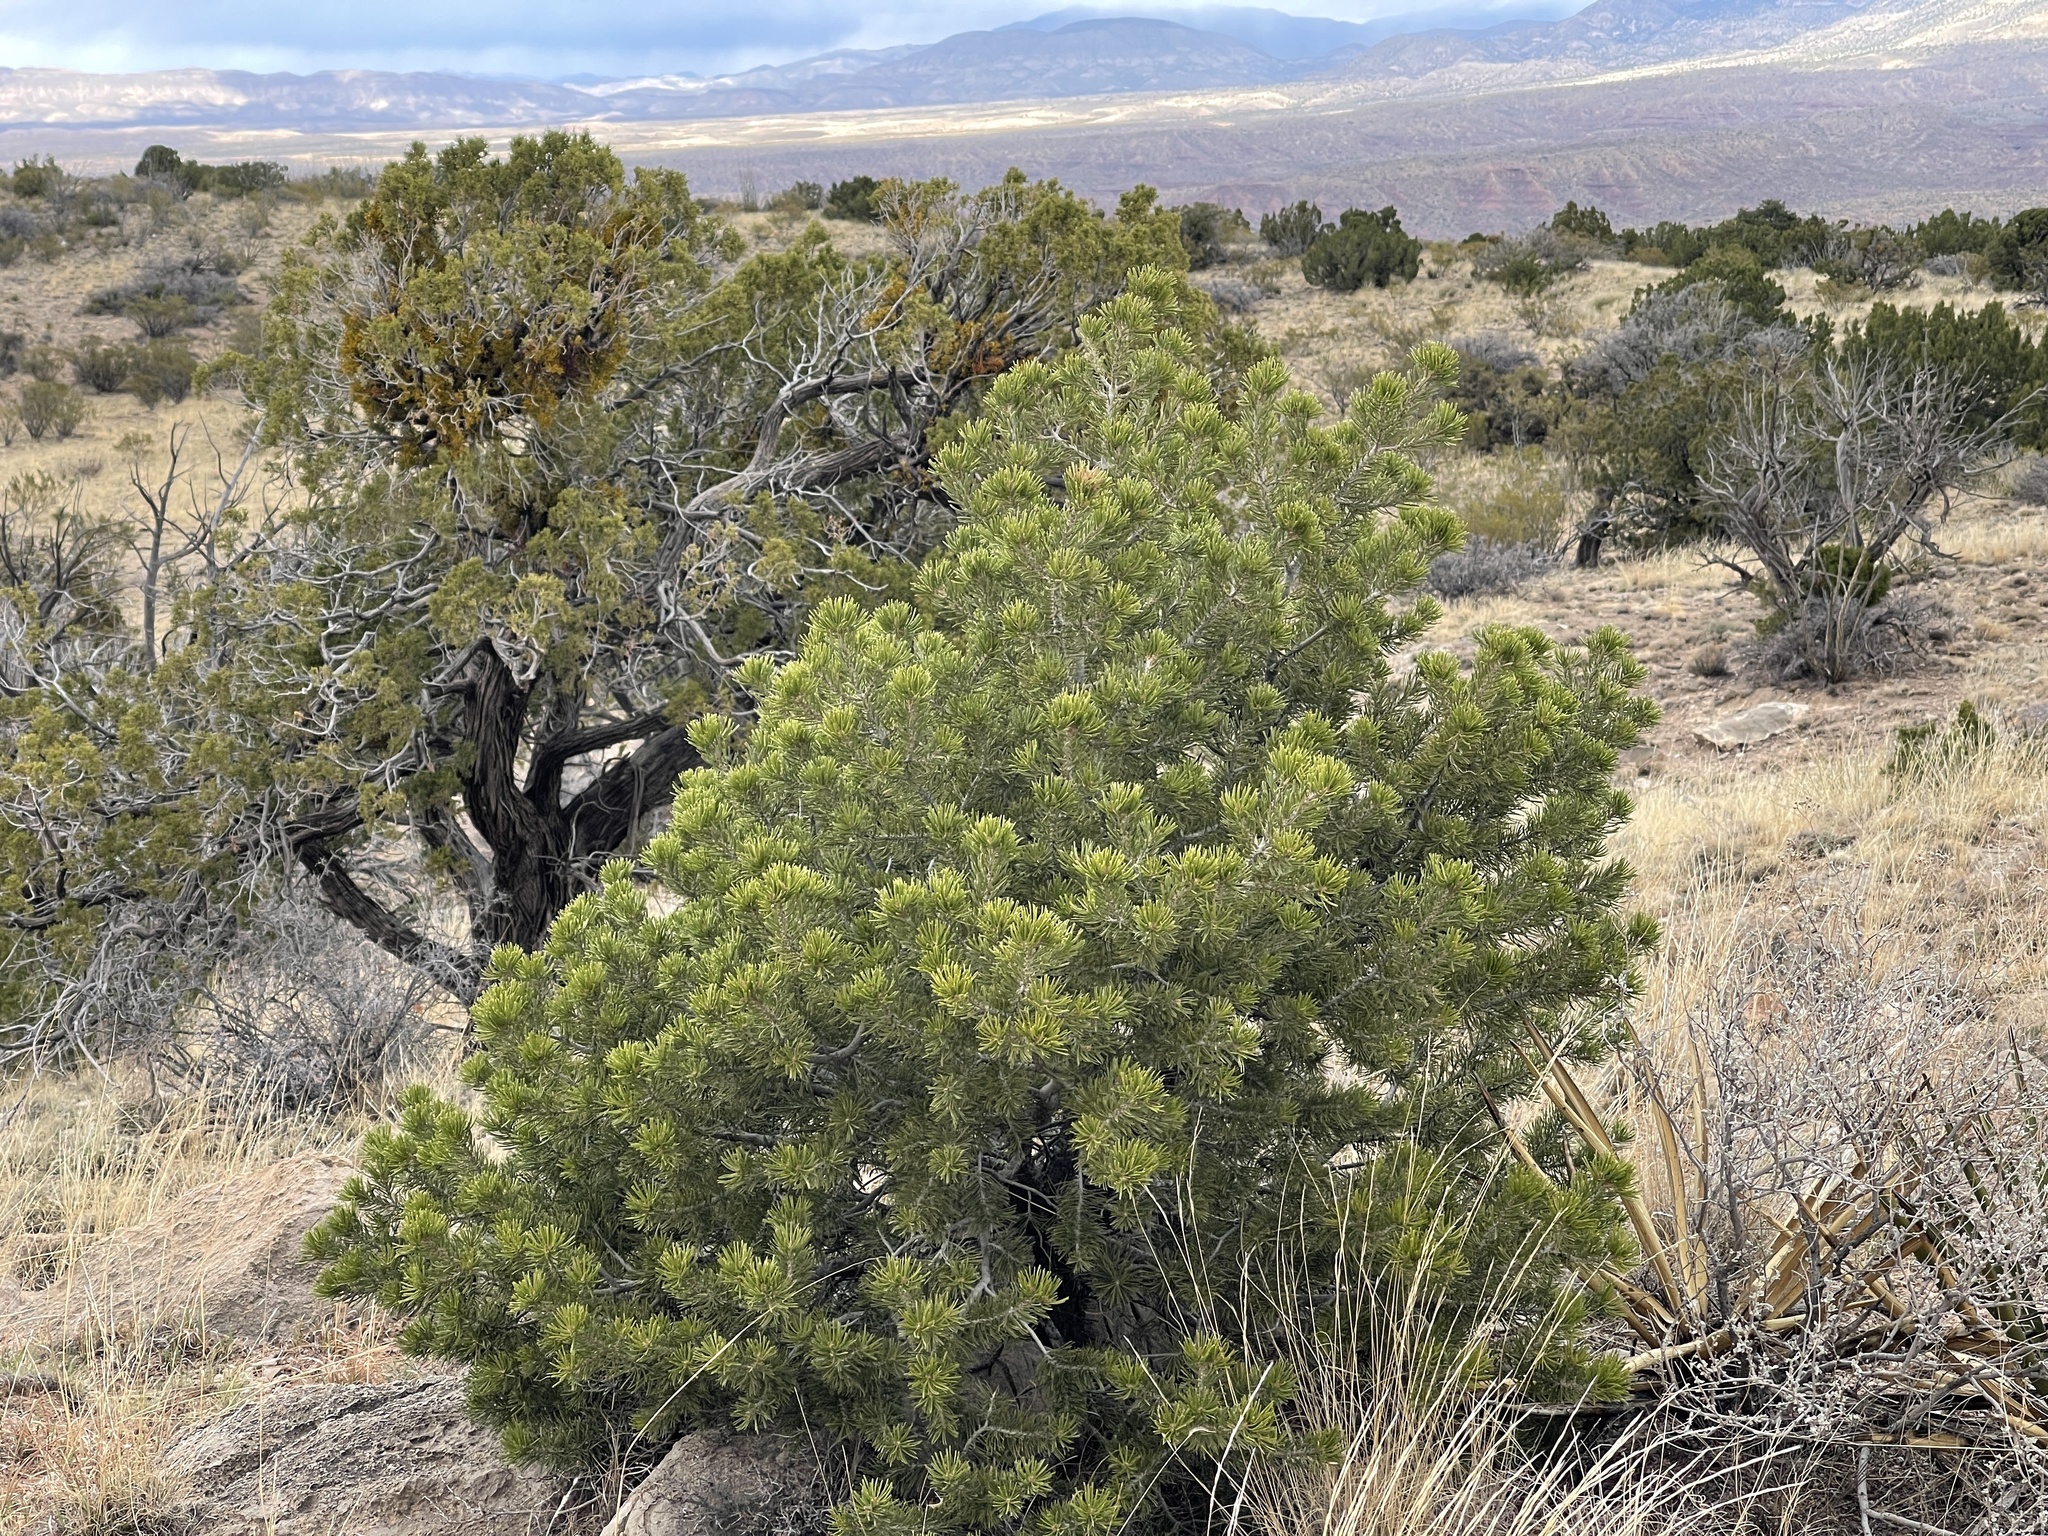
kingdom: Plantae
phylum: Tracheophyta
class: Pinopsida
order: Pinales
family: Pinaceae
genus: Pinus
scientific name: Pinus edulis
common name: Colorado pinyon
